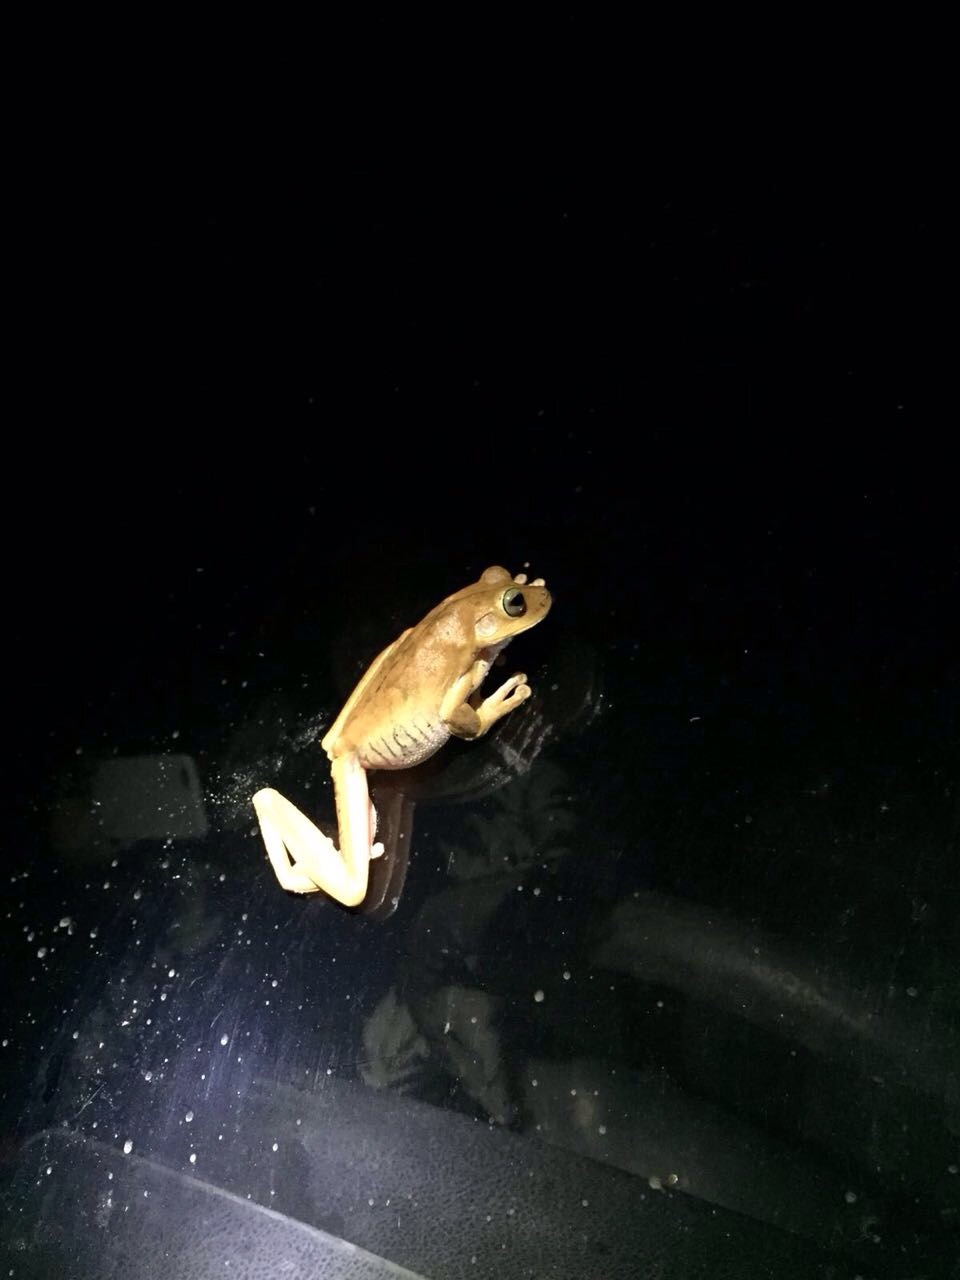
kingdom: Animalia
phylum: Chordata
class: Amphibia
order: Anura
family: Hylidae
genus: Boana
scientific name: Boana rosenbergi
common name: Rosenberg´s gladiator treefrog
